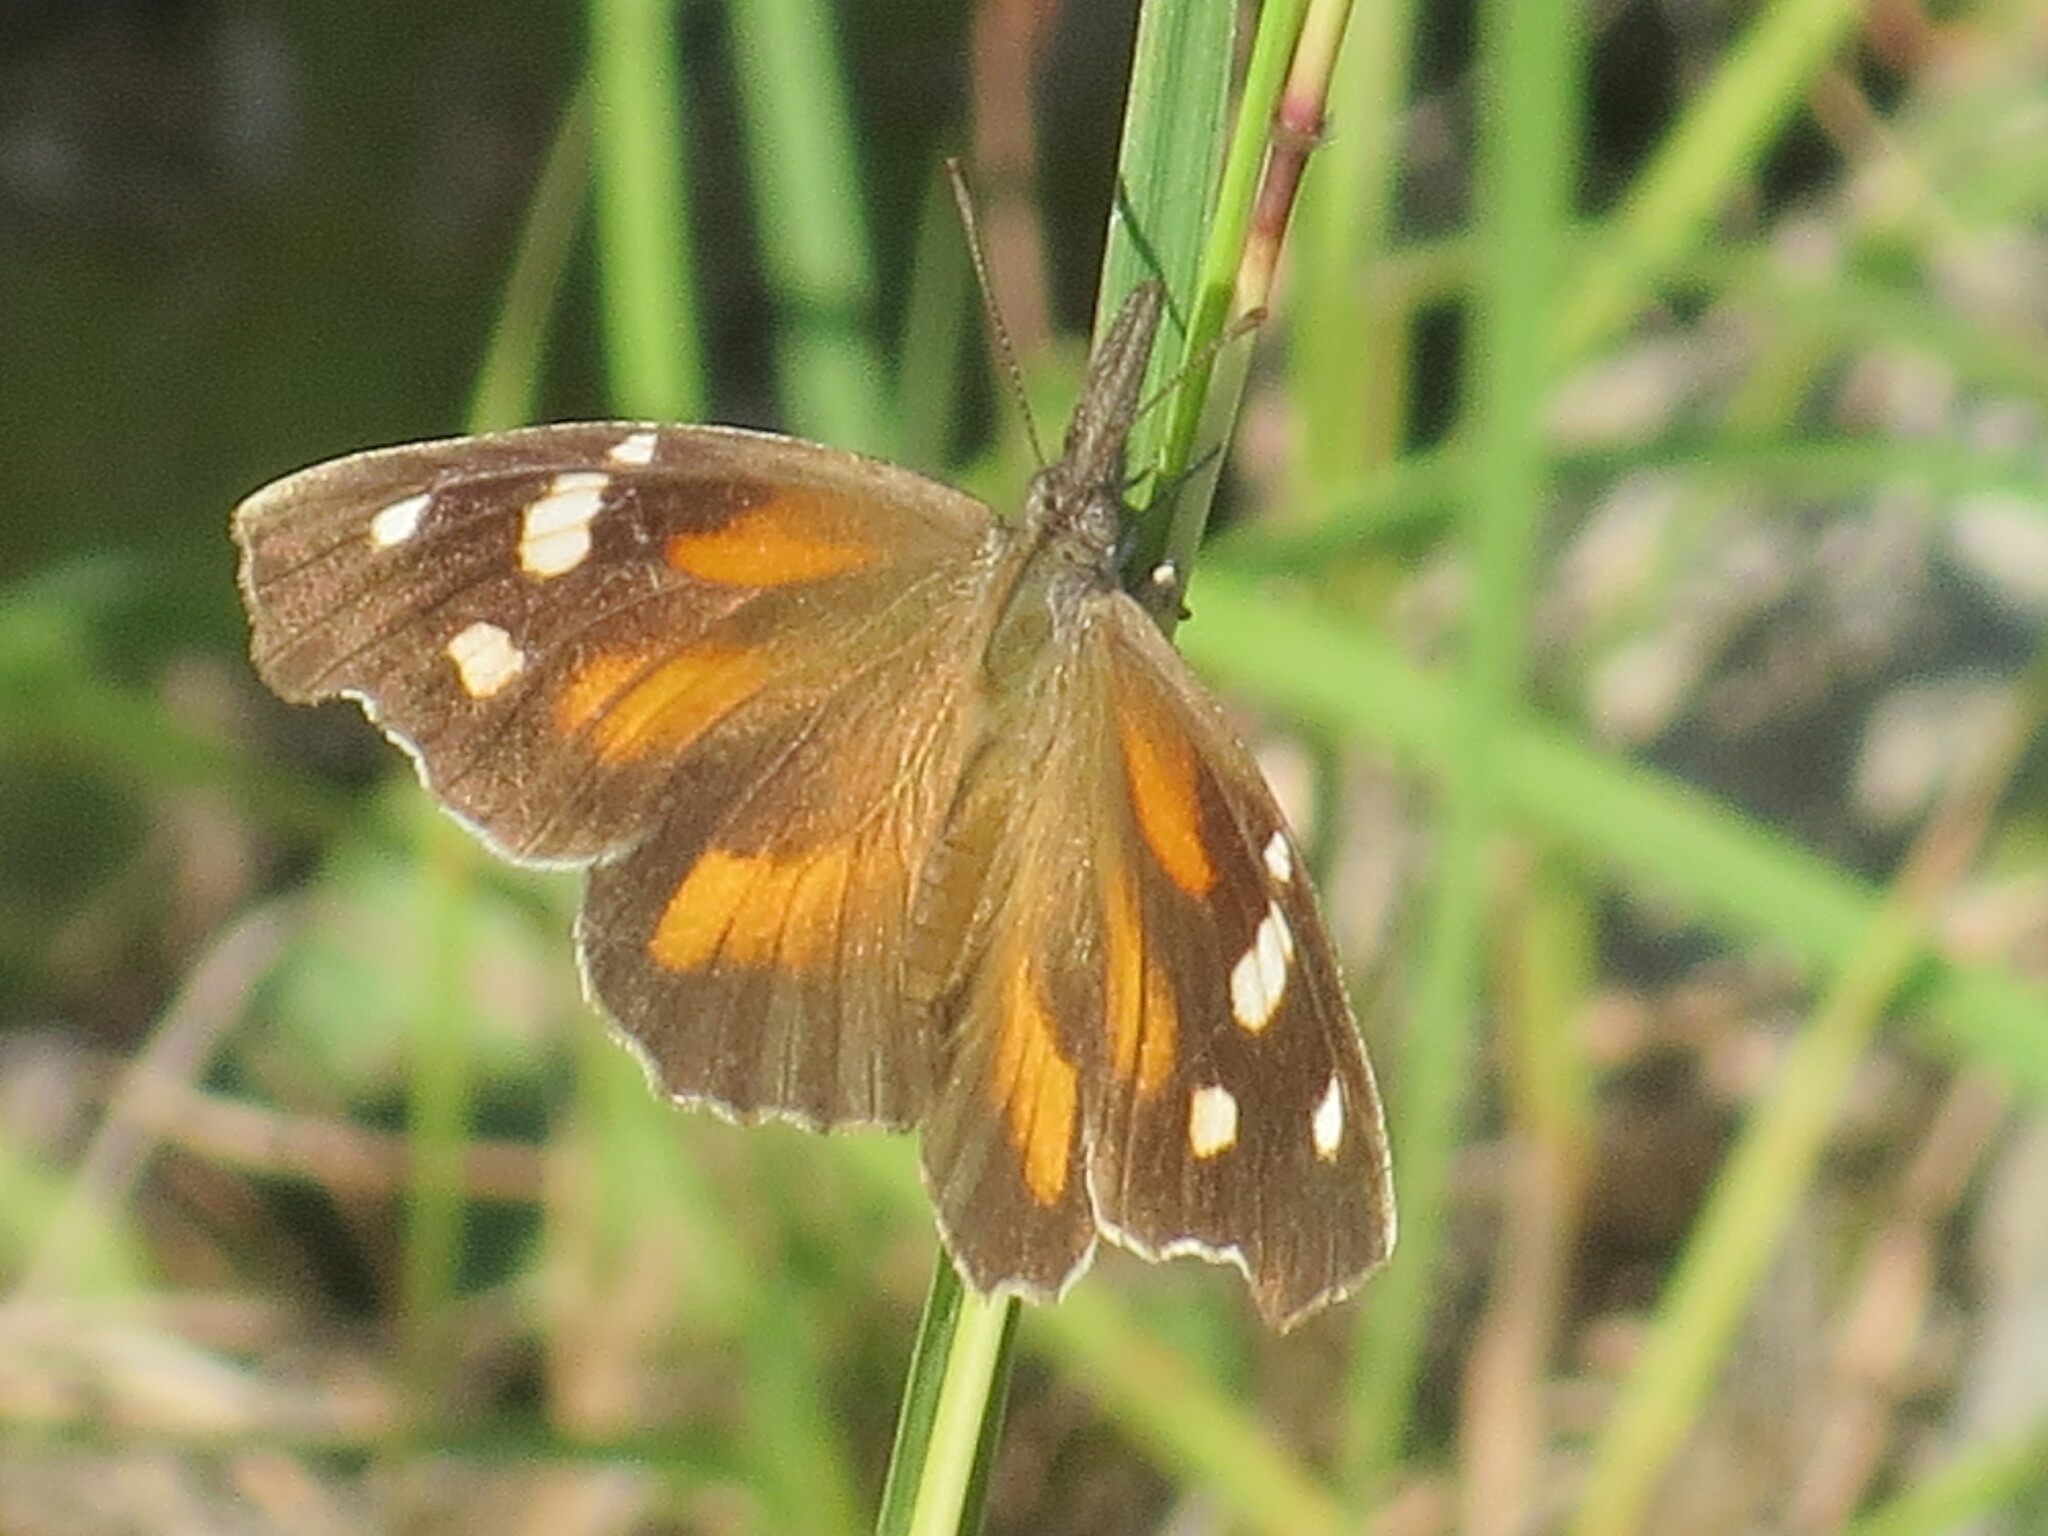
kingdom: Animalia
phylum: Arthropoda
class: Insecta
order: Lepidoptera
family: Nymphalidae
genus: Libytheana
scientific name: Libytheana carinenta
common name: American snout
